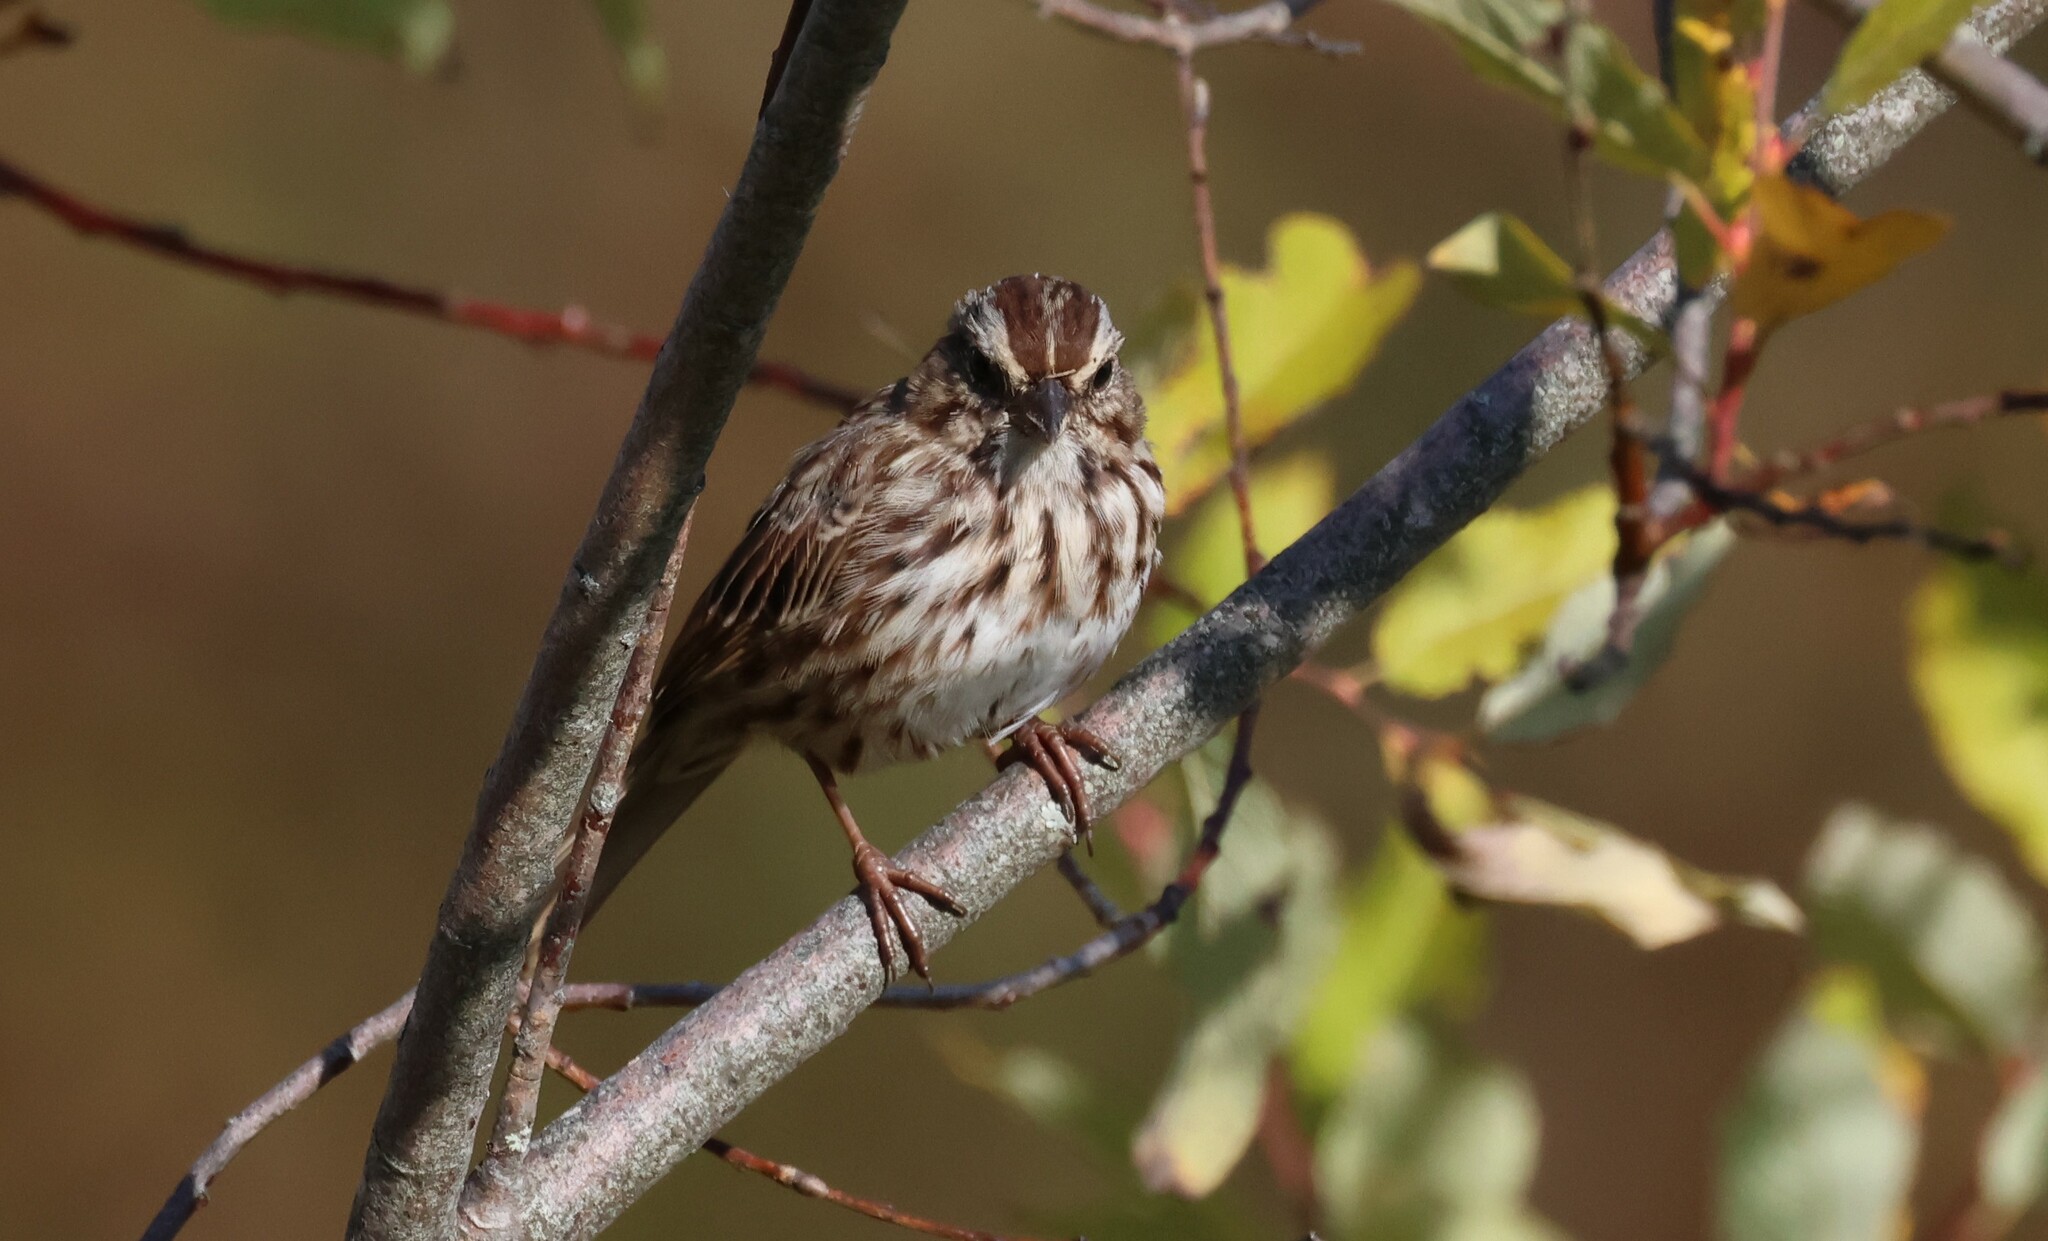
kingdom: Animalia
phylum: Chordata
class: Aves
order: Passeriformes
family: Passerellidae
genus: Melospiza
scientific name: Melospiza melodia
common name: Song sparrow
